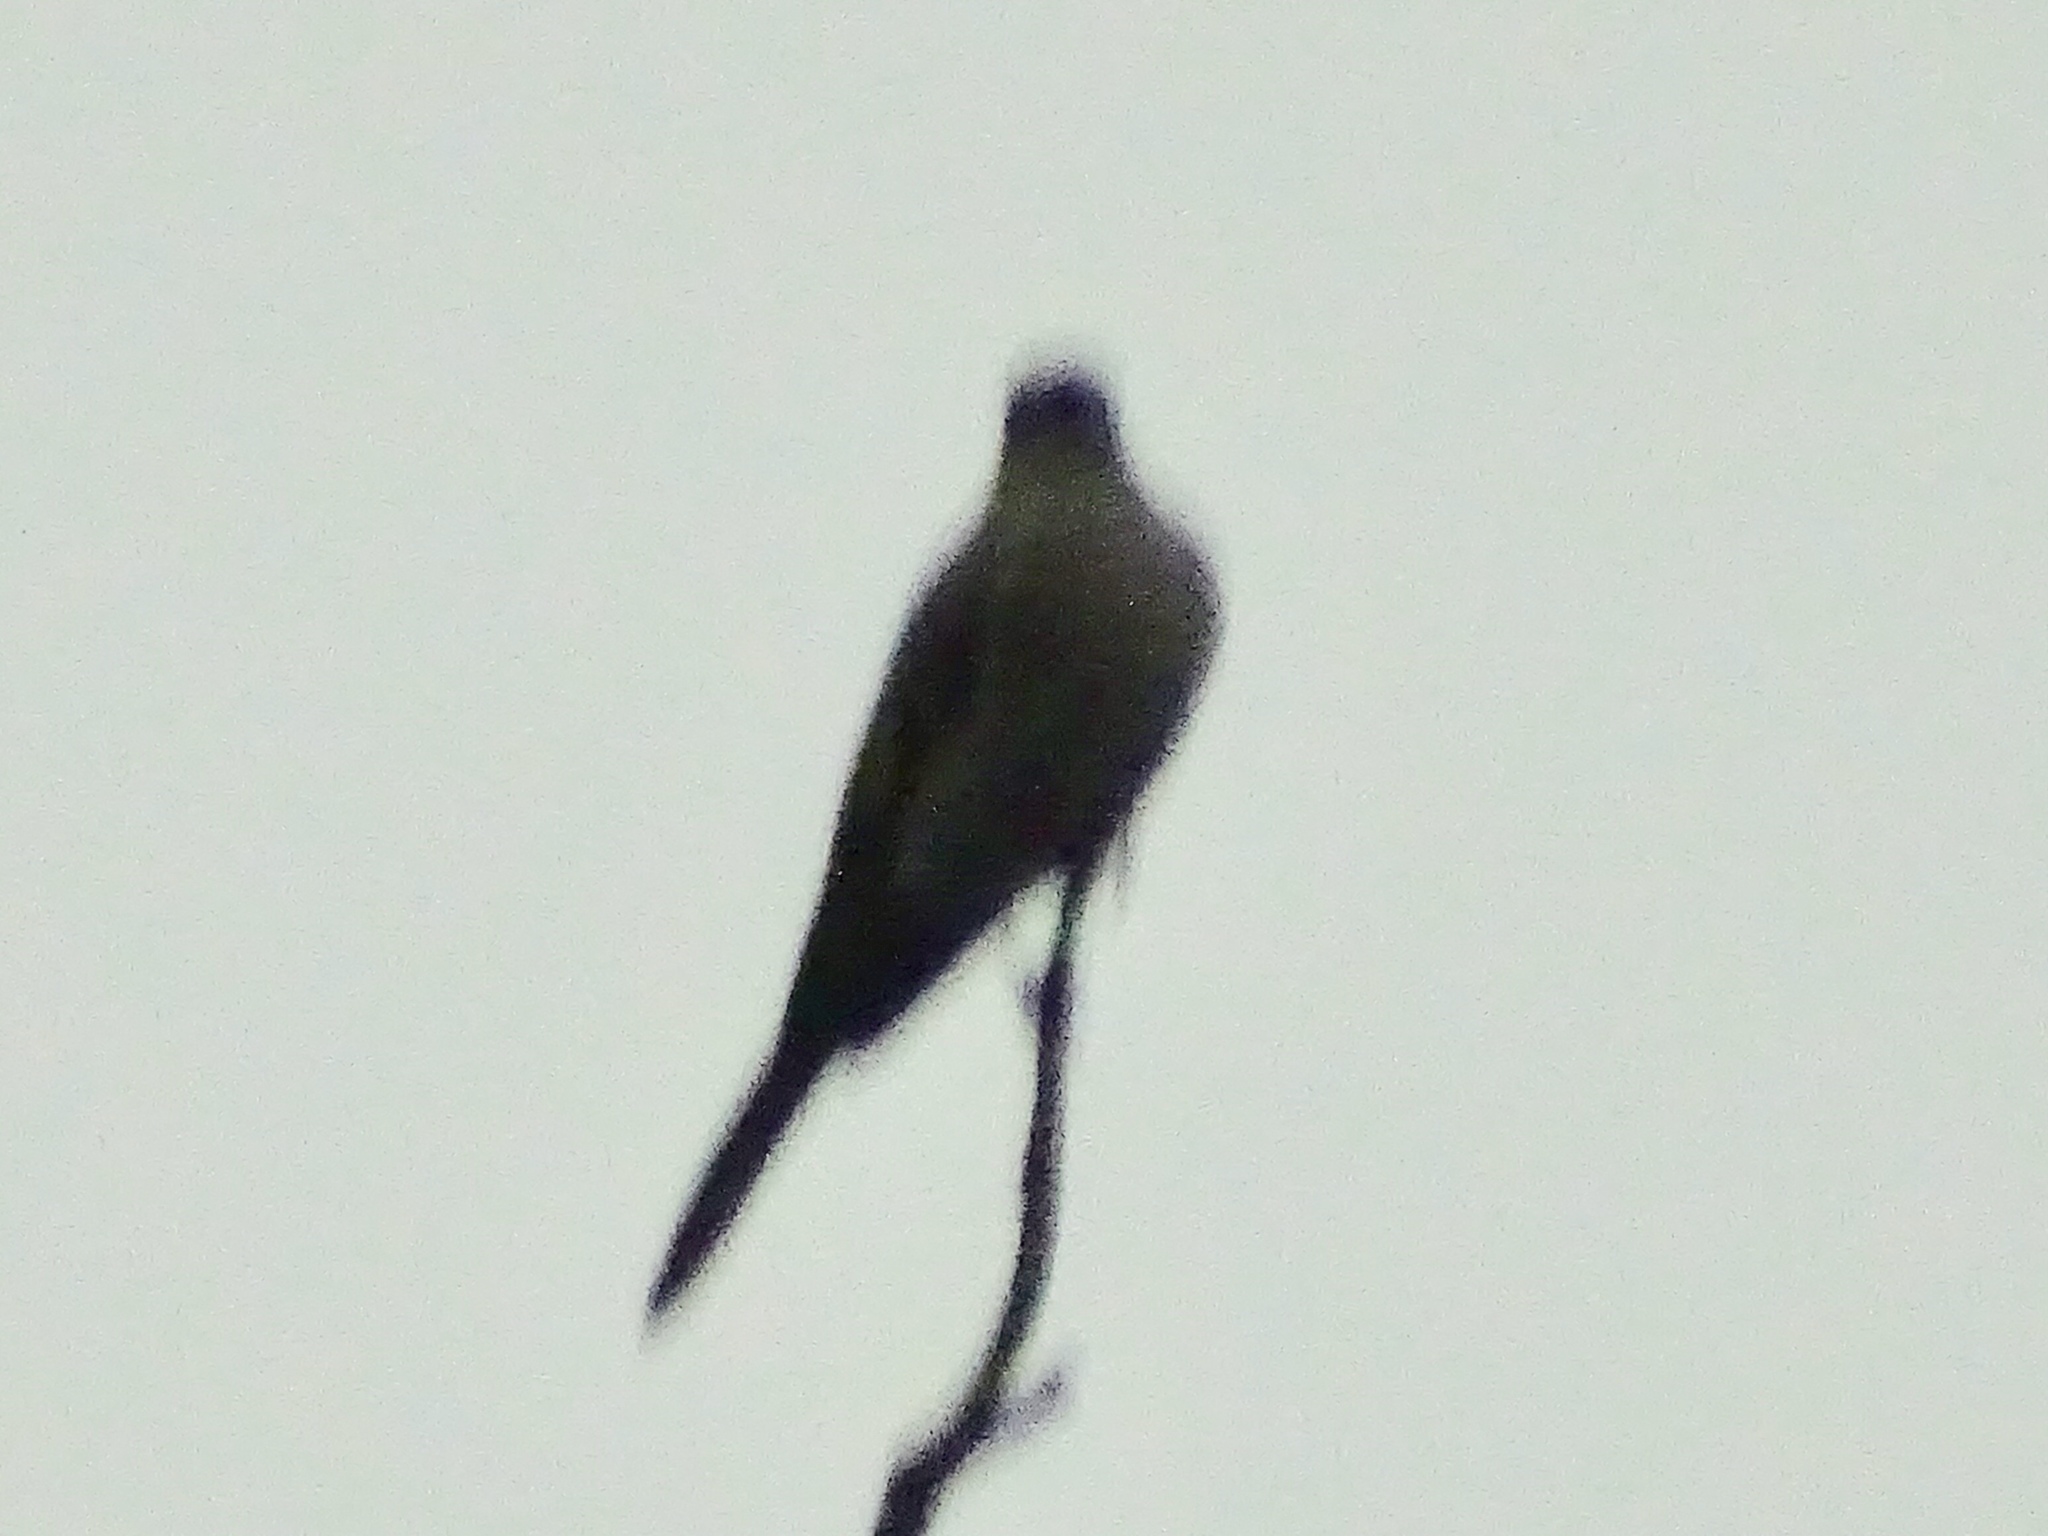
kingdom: Animalia
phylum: Chordata
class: Aves
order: Passeriformes
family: Turdidae
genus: Myadestes
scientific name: Myadestes townsendi
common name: Townsend's solitaire
